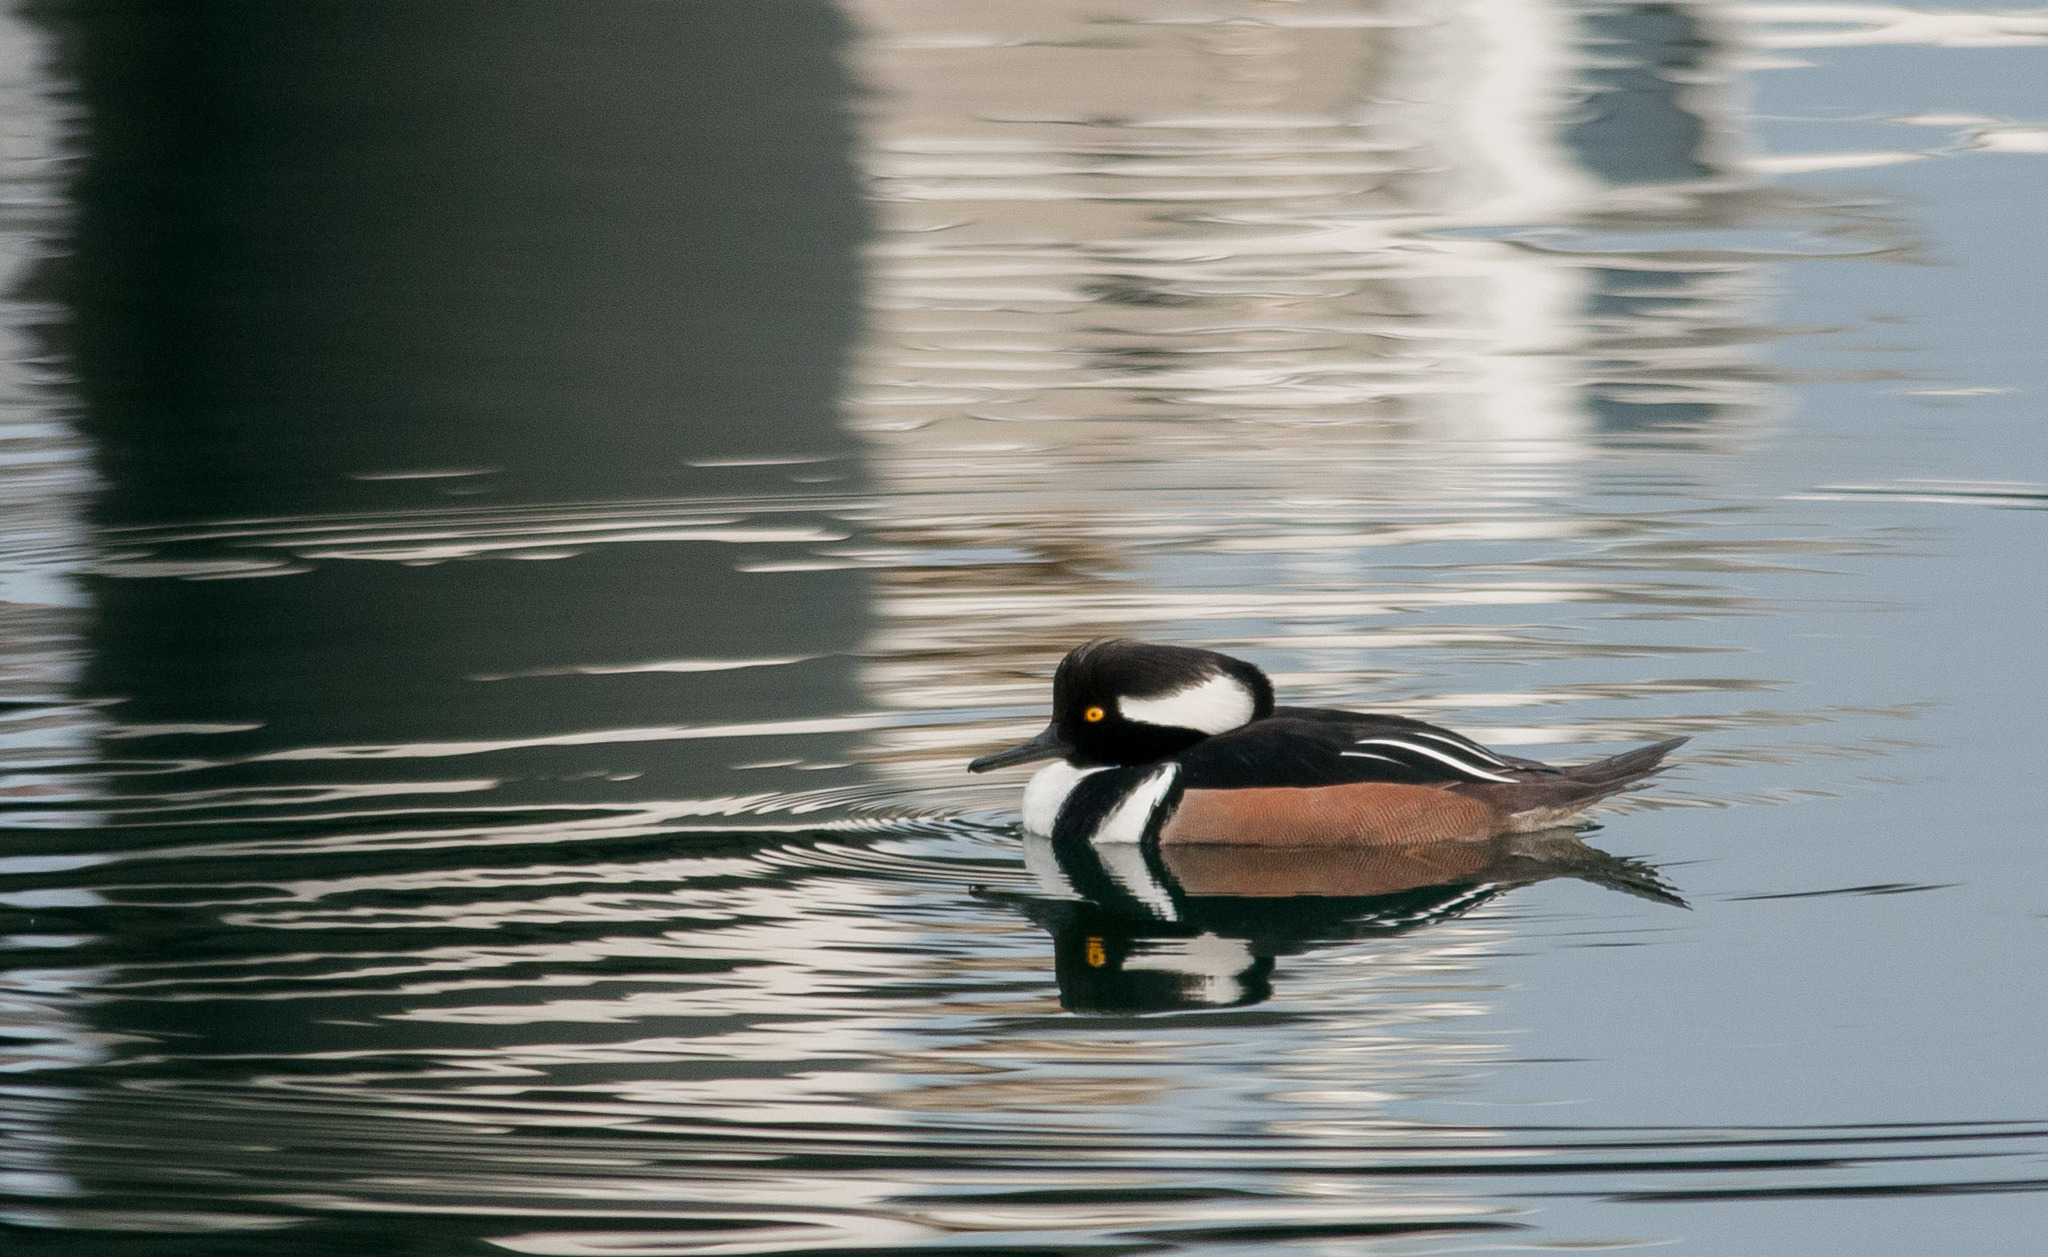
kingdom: Animalia
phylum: Chordata
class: Aves
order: Anseriformes
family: Anatidae
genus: Lophodytes
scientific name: Lophodytes cucullatus
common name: Hooded merganser
